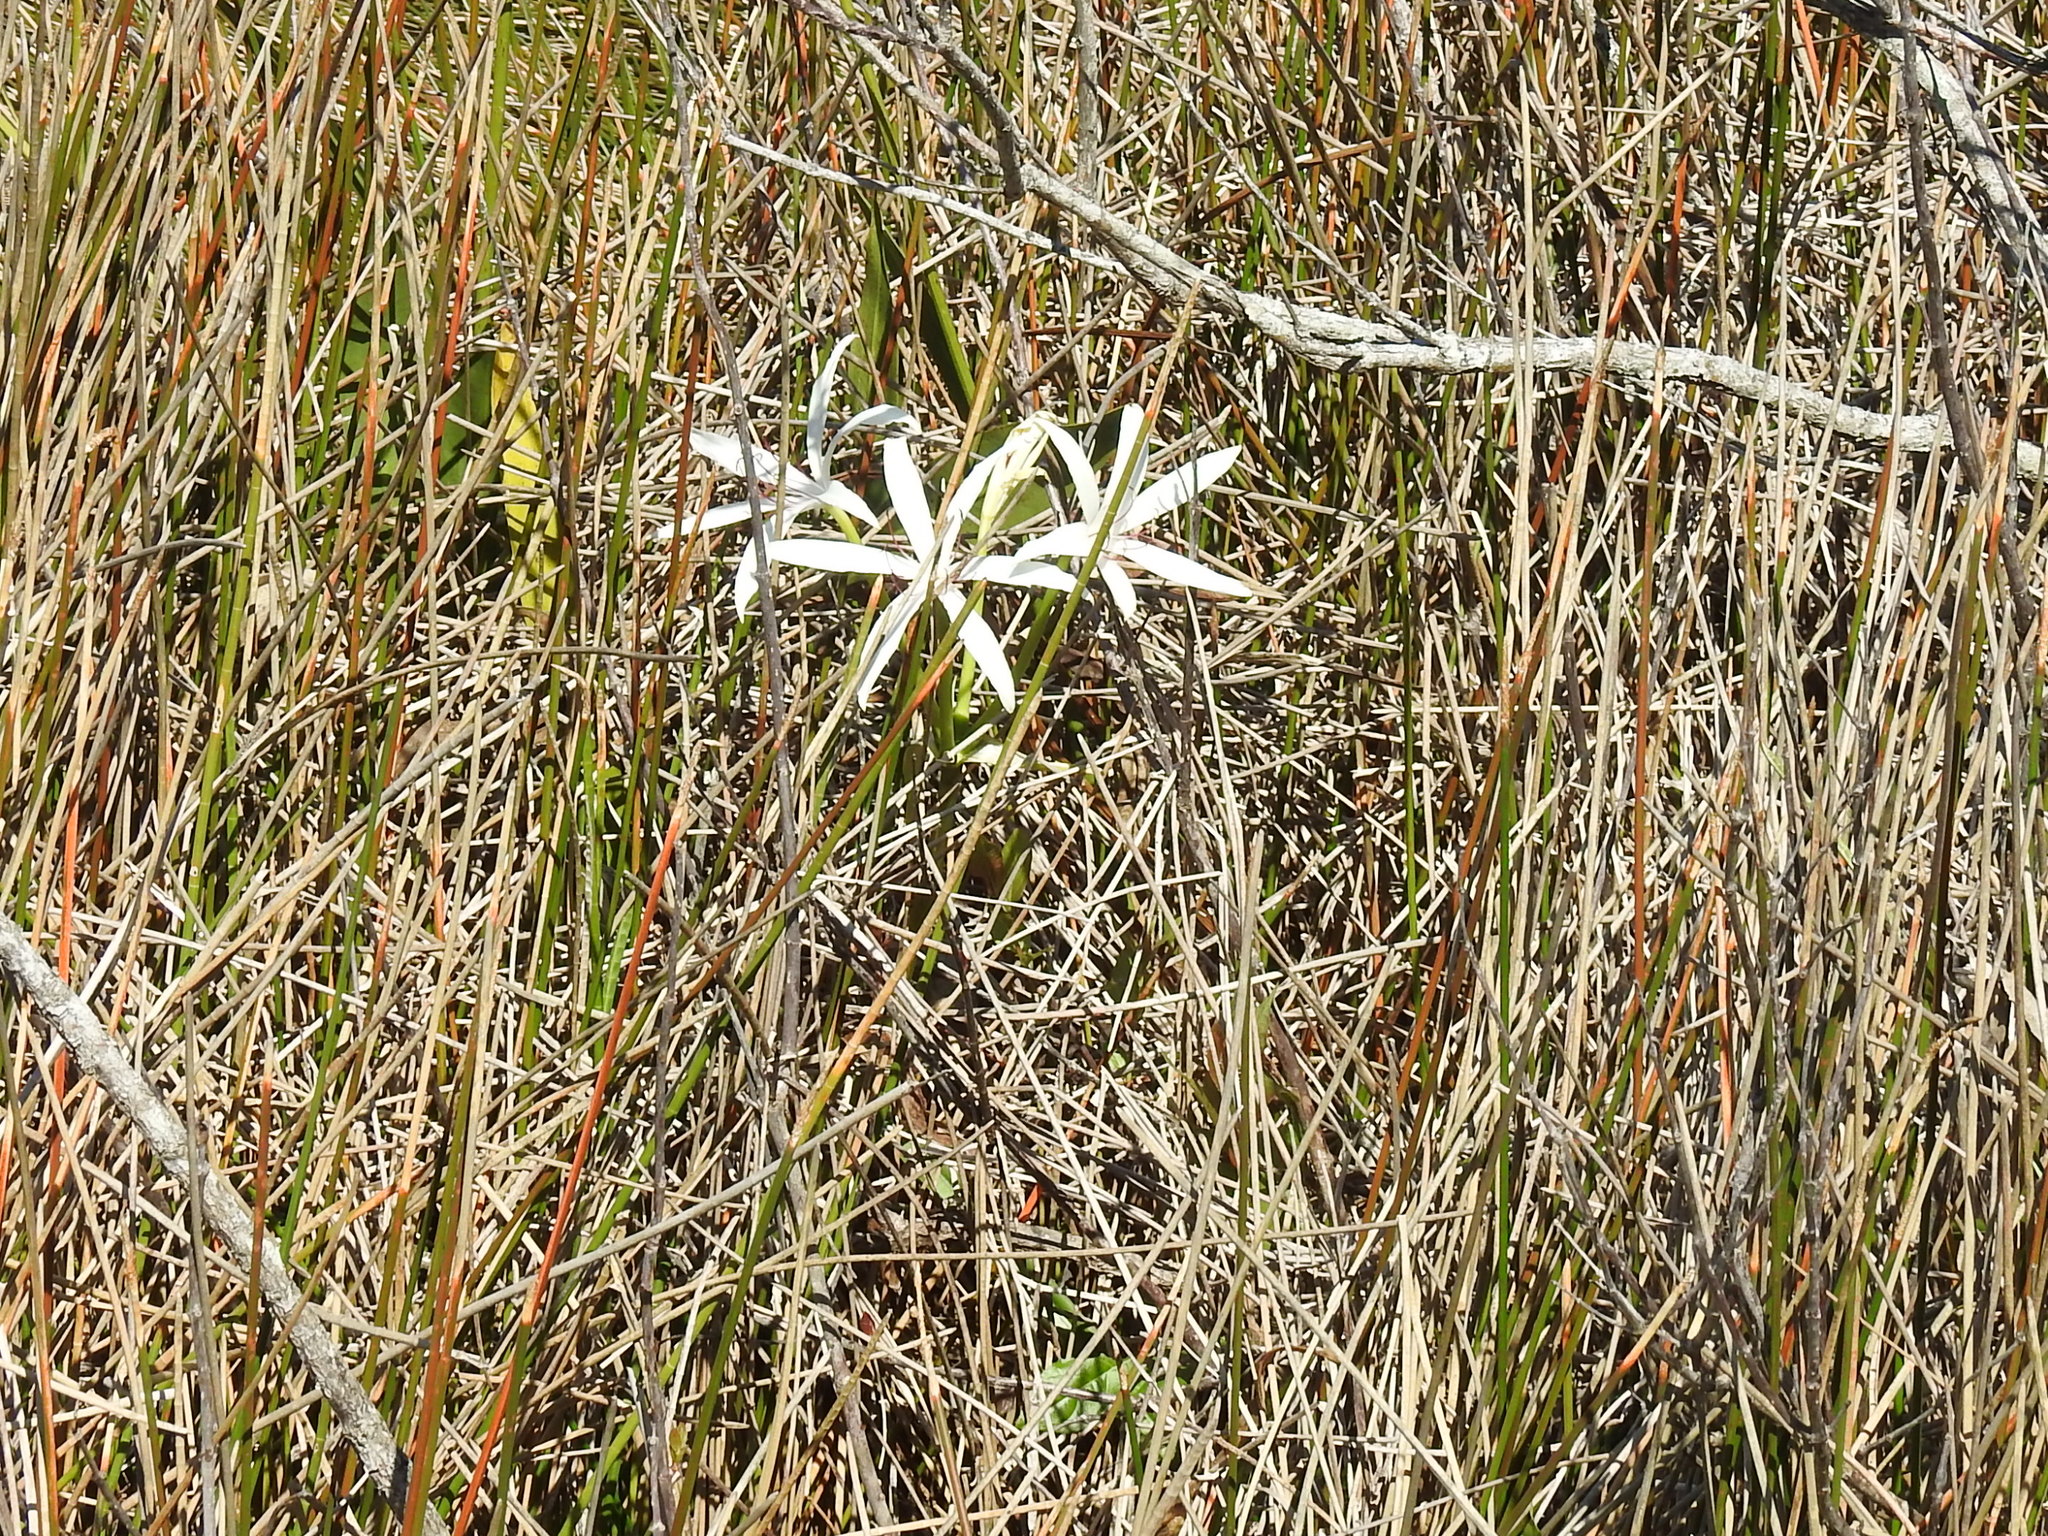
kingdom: Plantae
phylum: Tracheophyta
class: Liliopsida
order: Asparagales
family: Amaryllidaceae
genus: Crinum
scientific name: Crinum americanum
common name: Florida swamp-lily
